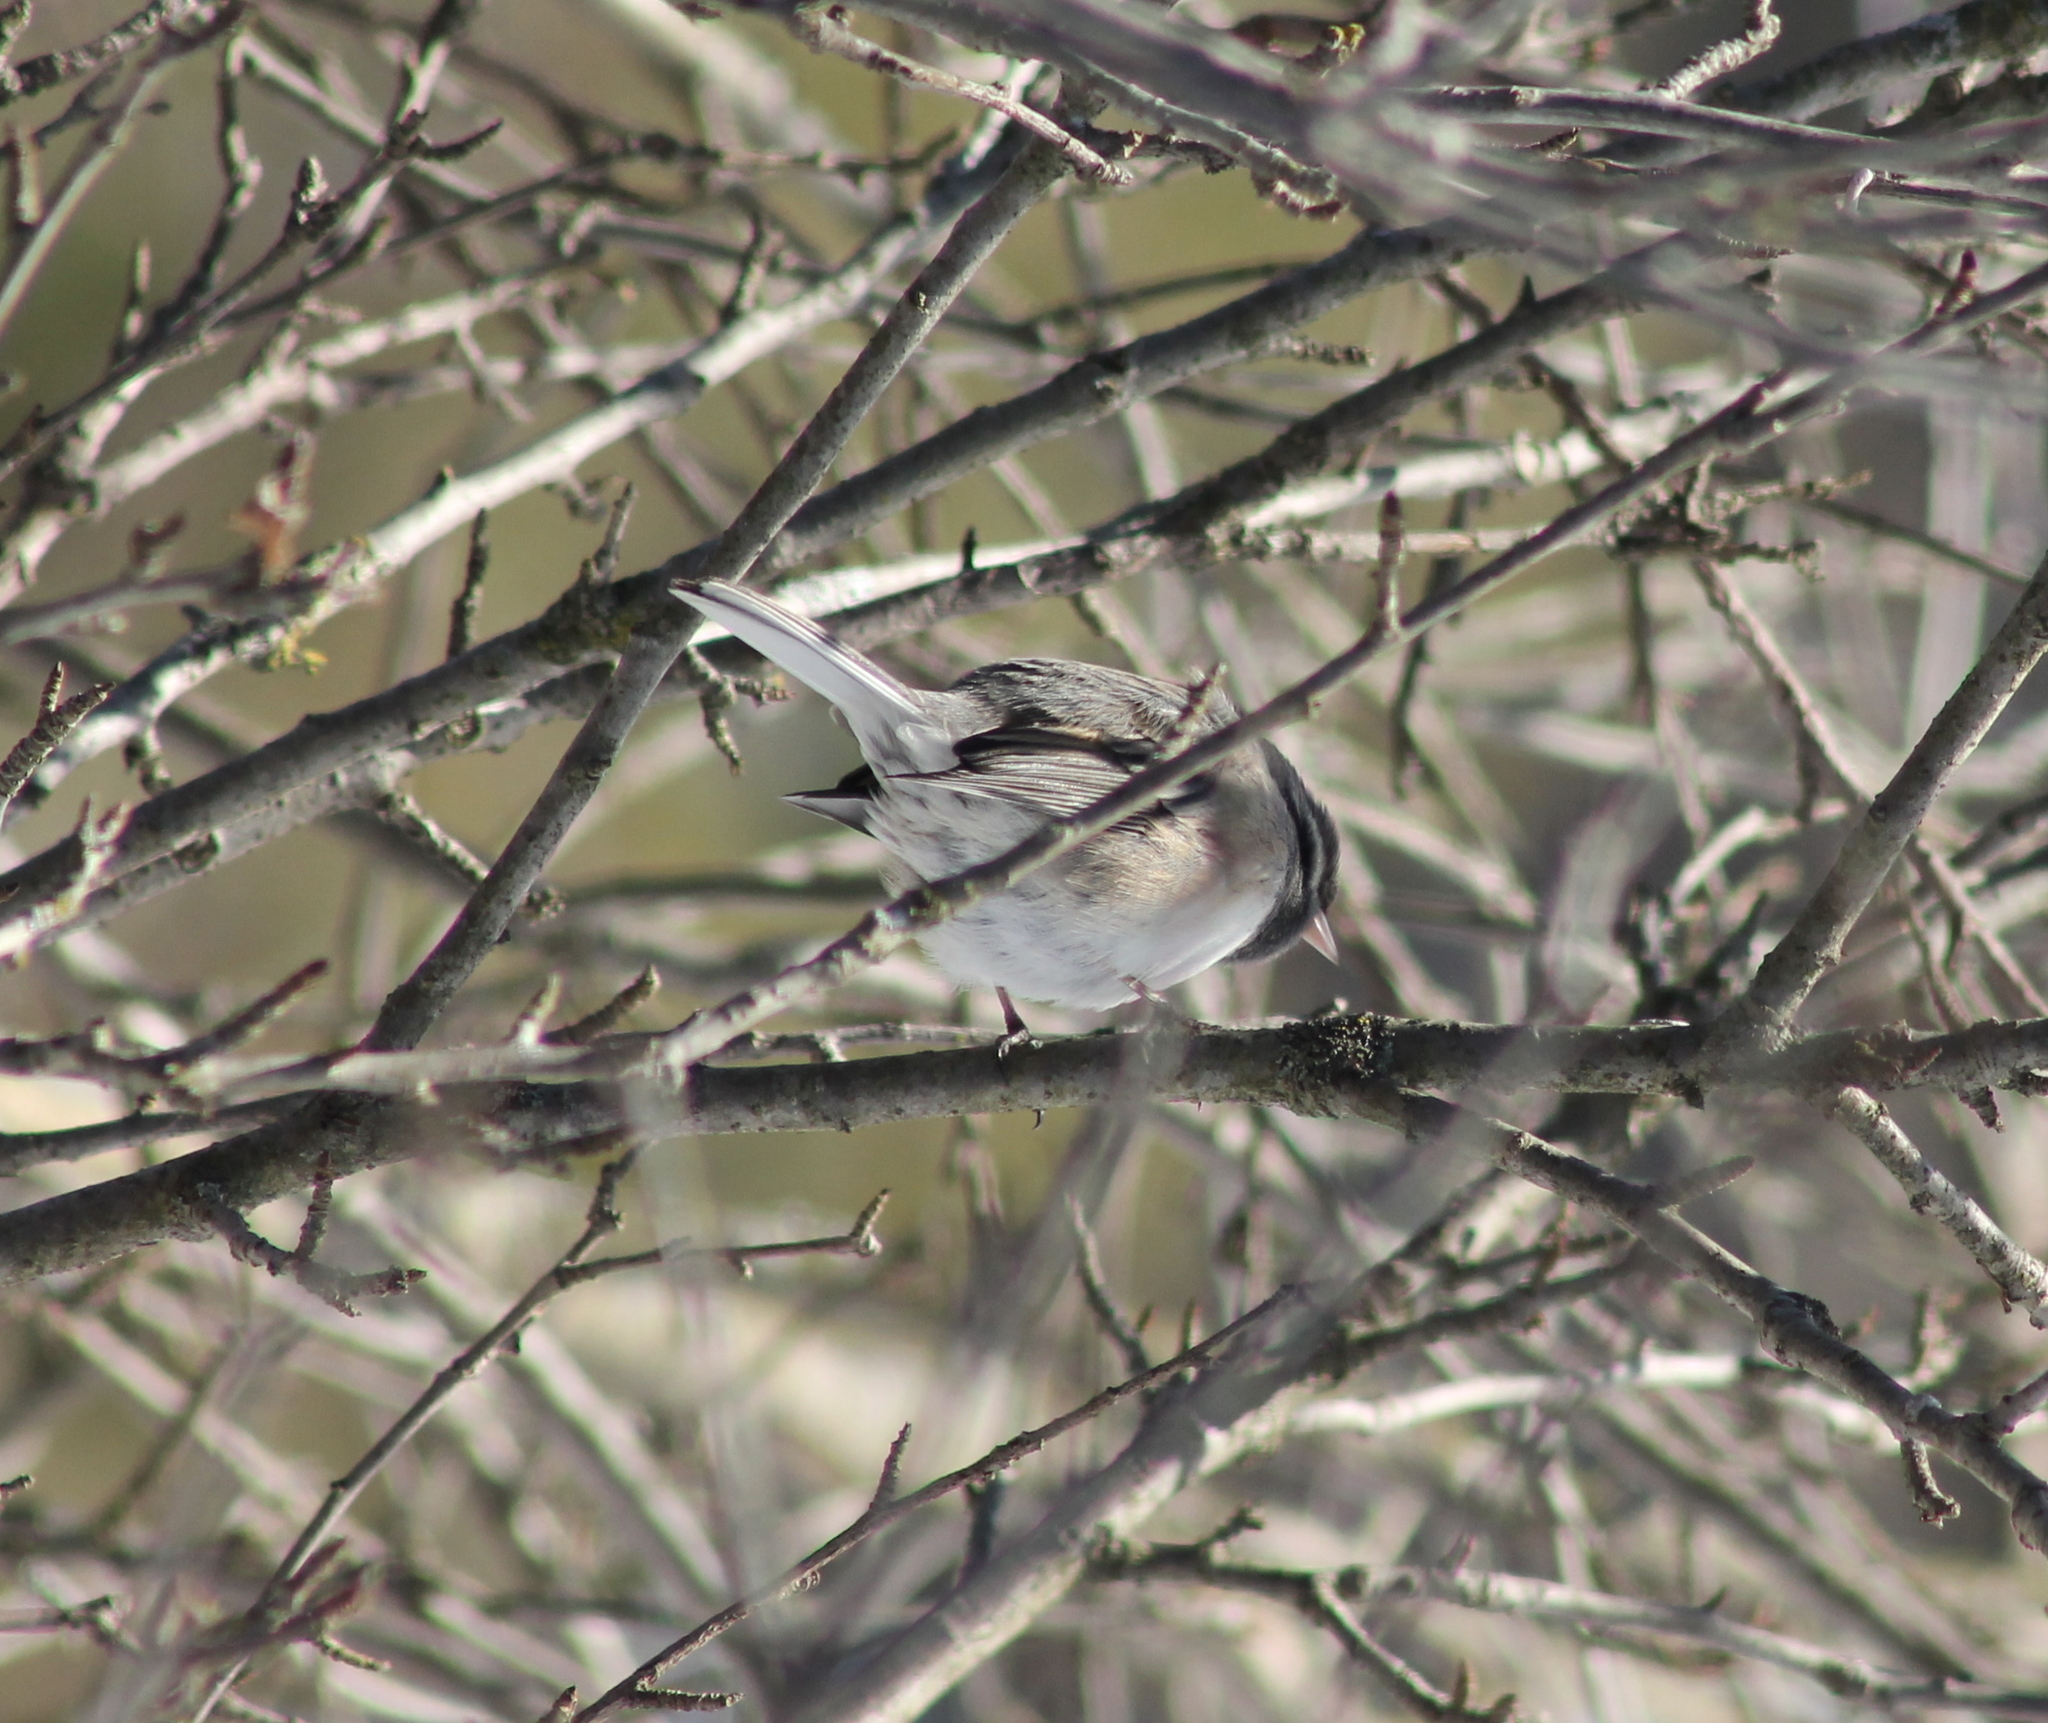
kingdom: Animalia
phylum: Chordata
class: Aves
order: Passeriformes
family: Passerellidae
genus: Junco
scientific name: Junco hyemalis
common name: Dark-eyed junco
